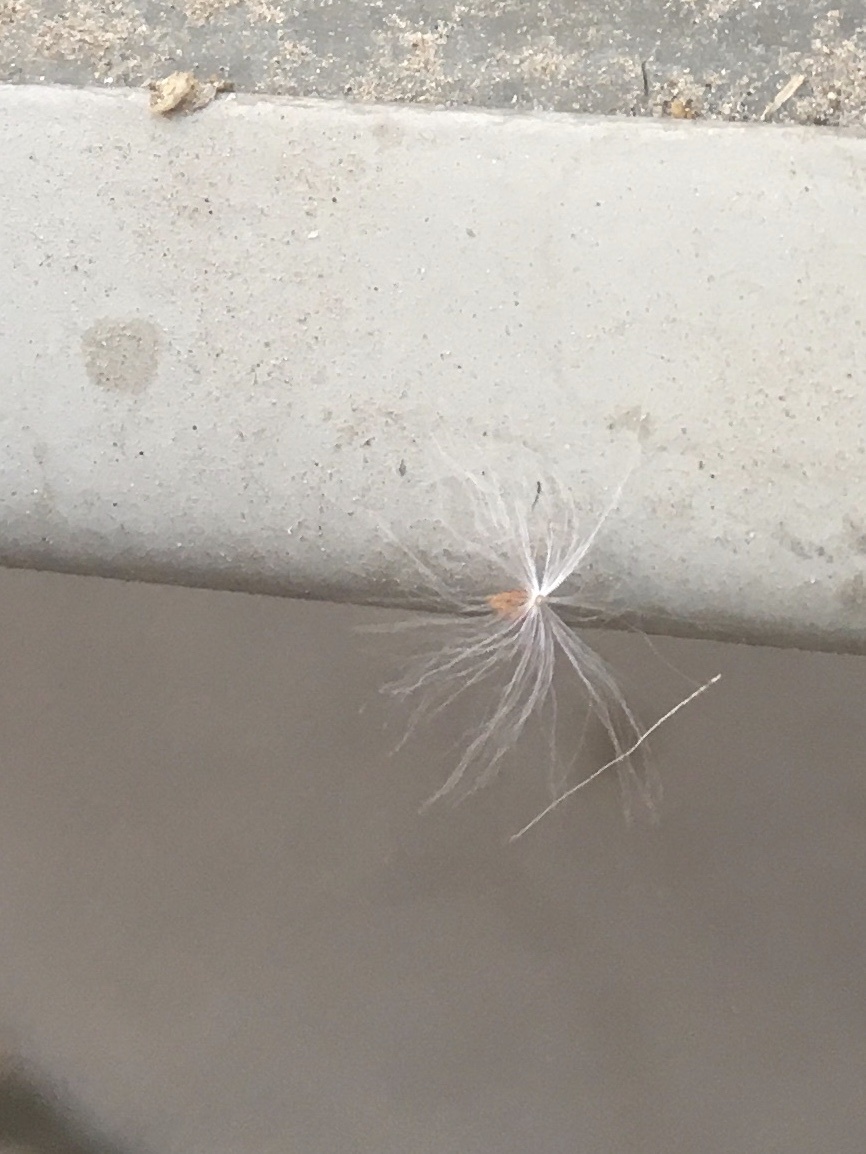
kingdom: Plantae
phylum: Tracheophyta
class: Magnoliopsida
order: Asterales
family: Asteraceae
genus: Sonchus
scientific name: Sonchus oleraceus
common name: Common sowthistle
